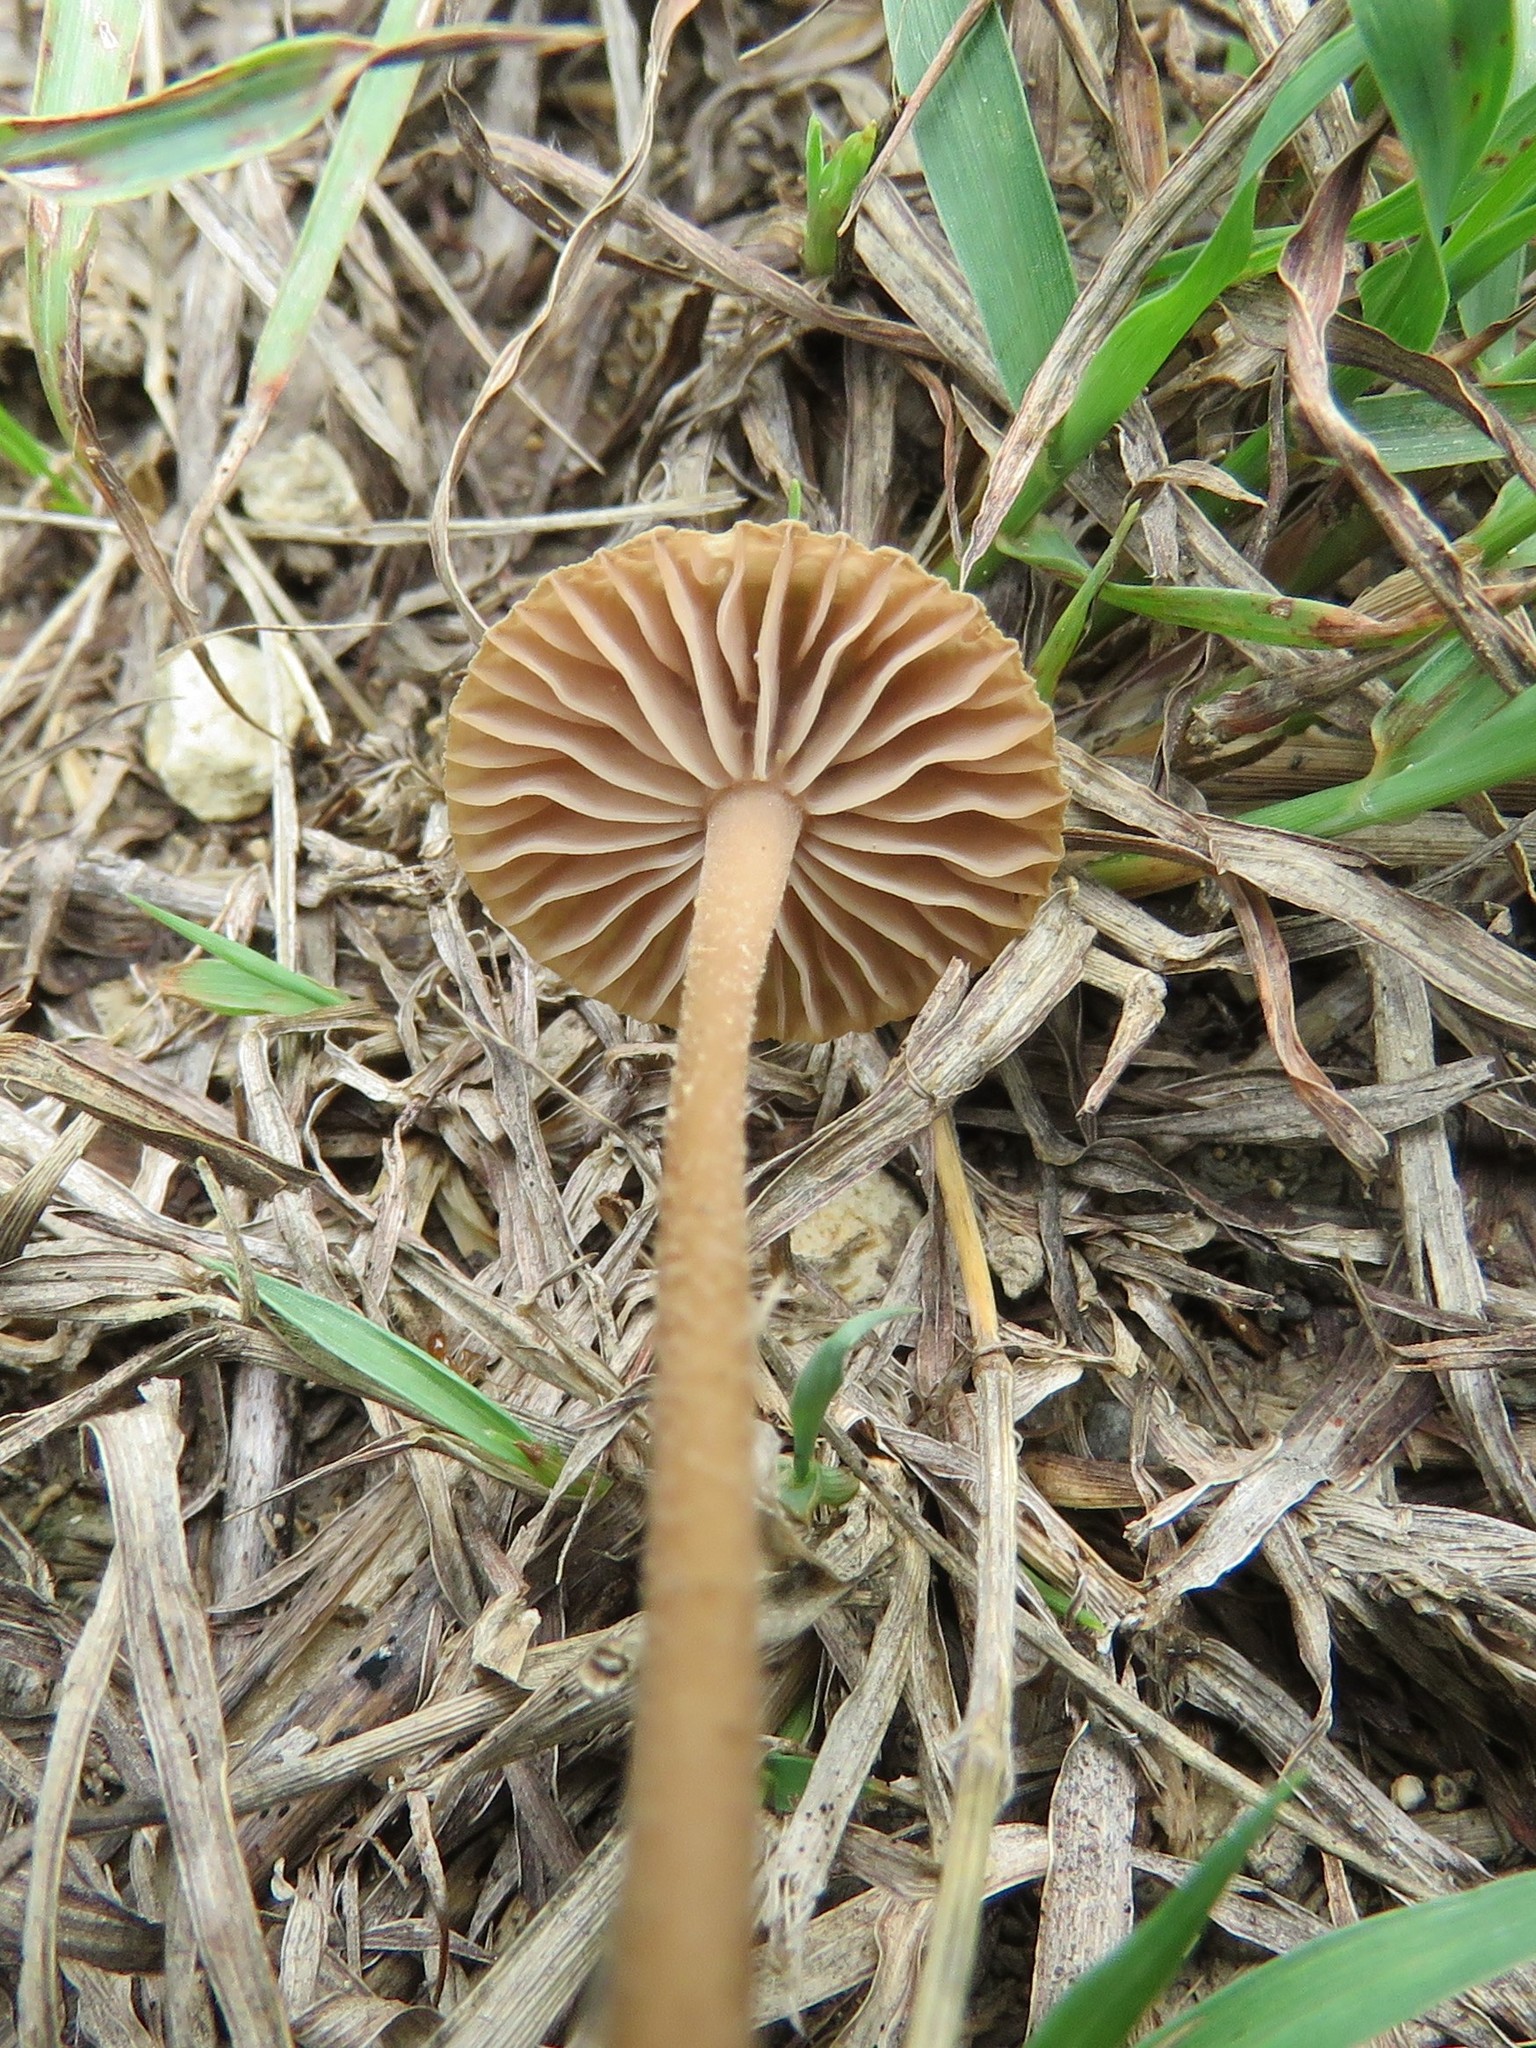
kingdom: Fungi
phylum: Basidiomycota
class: Agaricomycetes
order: Agaricales
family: Tubariaceae
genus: Tubaria
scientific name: Tubaria furfuracea
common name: Scurfy twiglet
